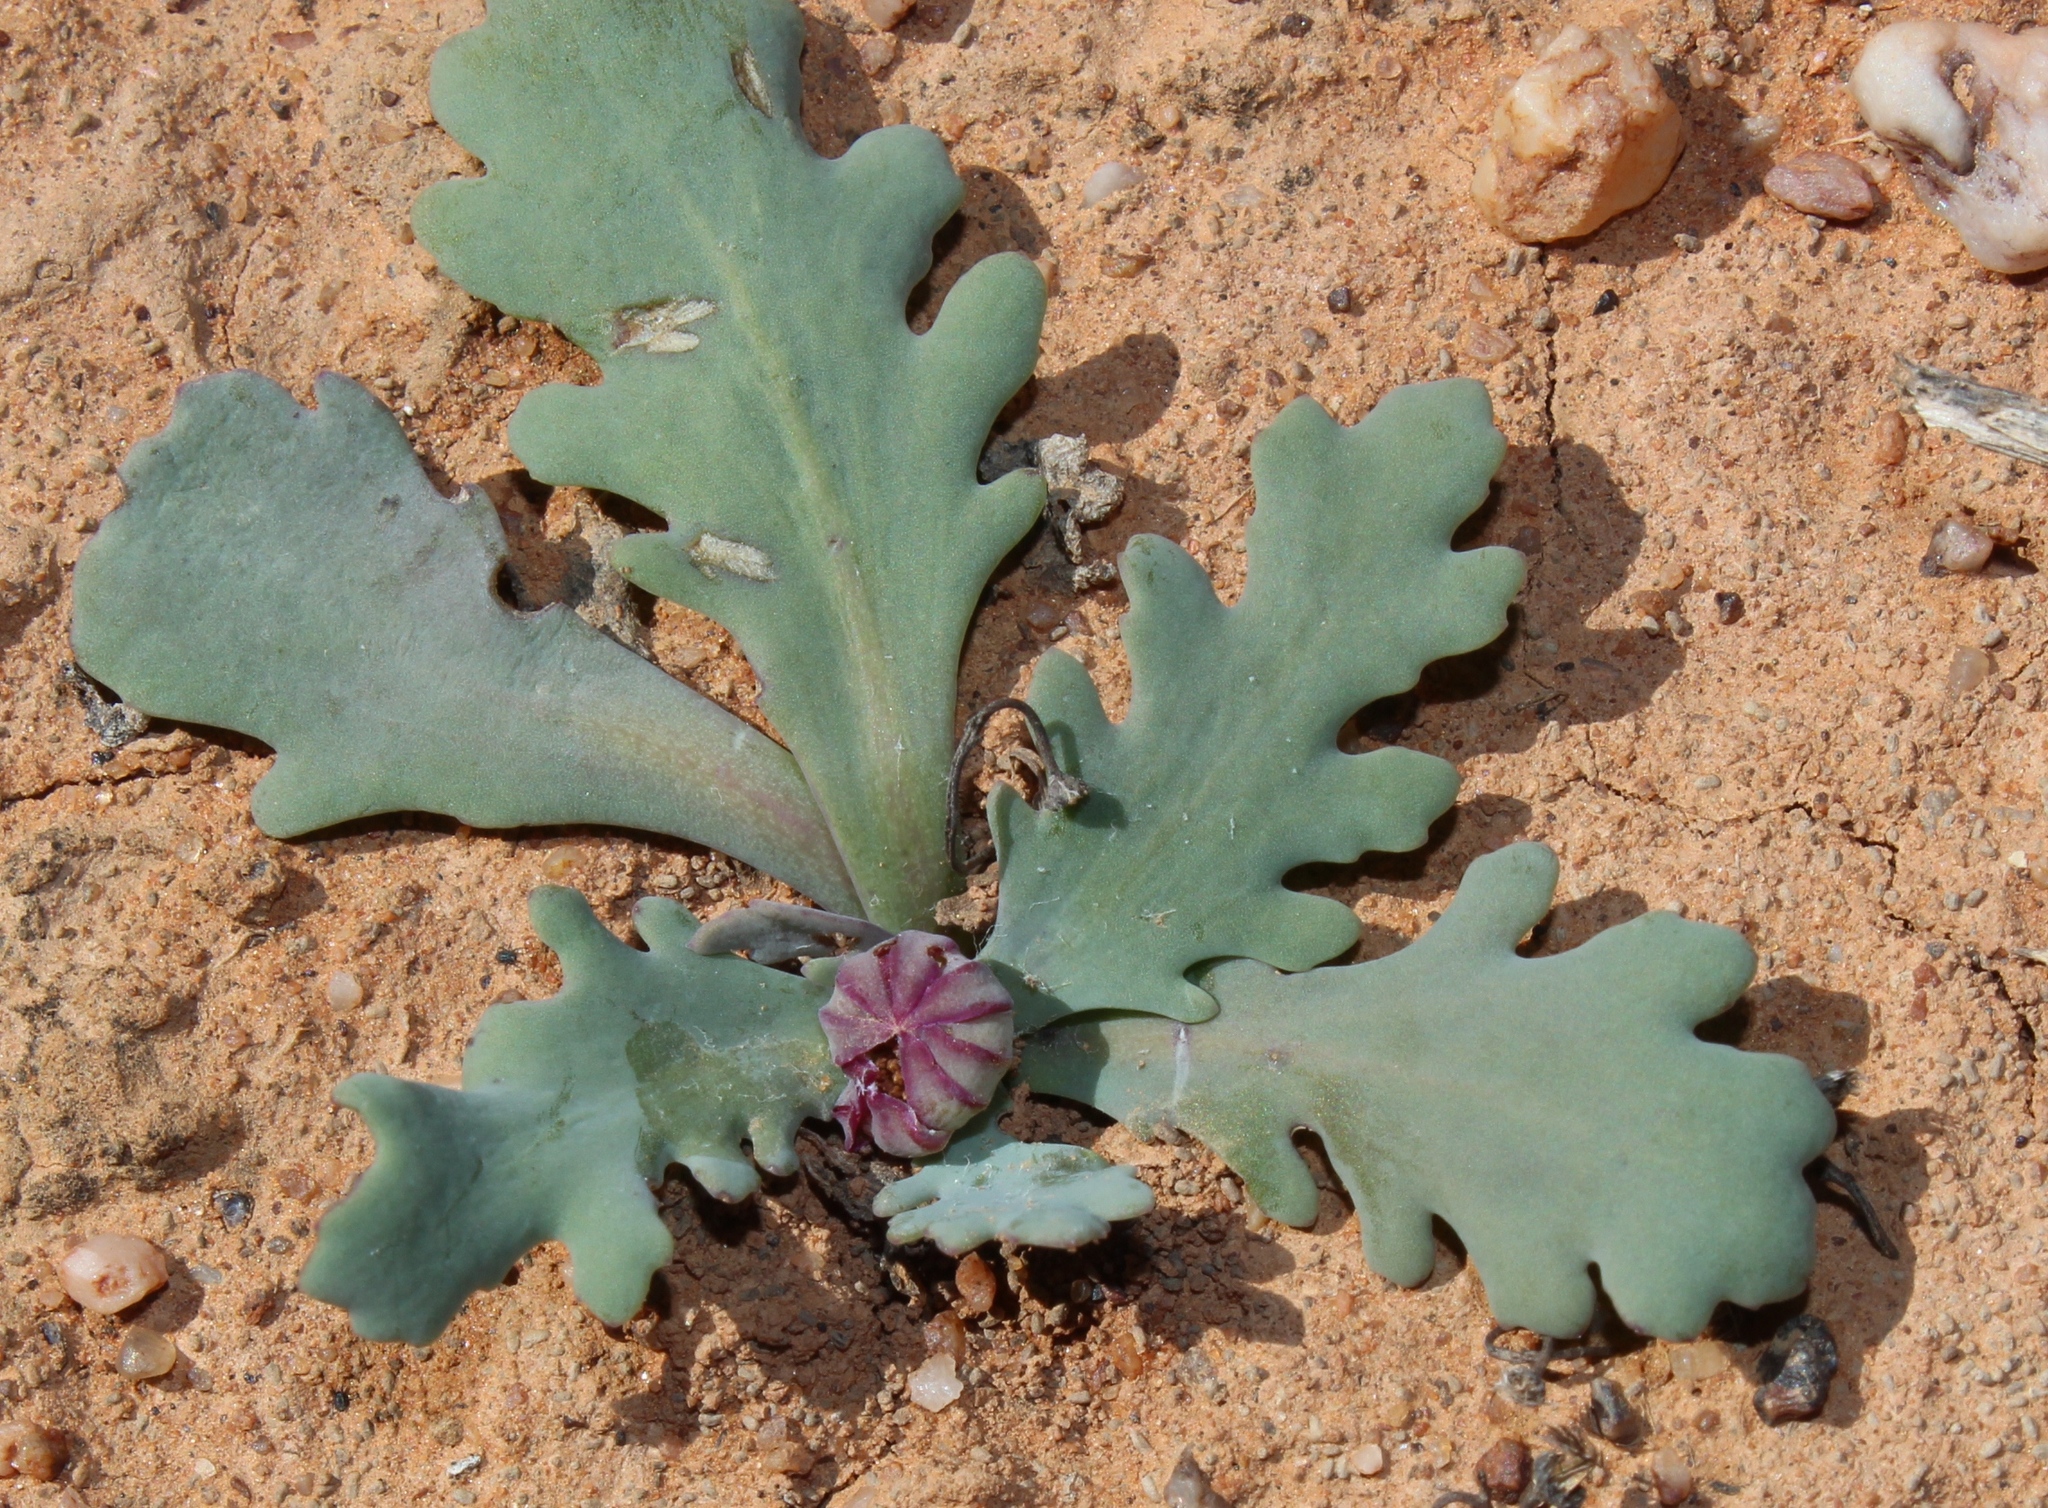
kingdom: Plantae
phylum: Tracheophyta
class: Magnoliopsida
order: Asterales
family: Asteraceae
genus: Othonna
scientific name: Othonna auriculifolia
